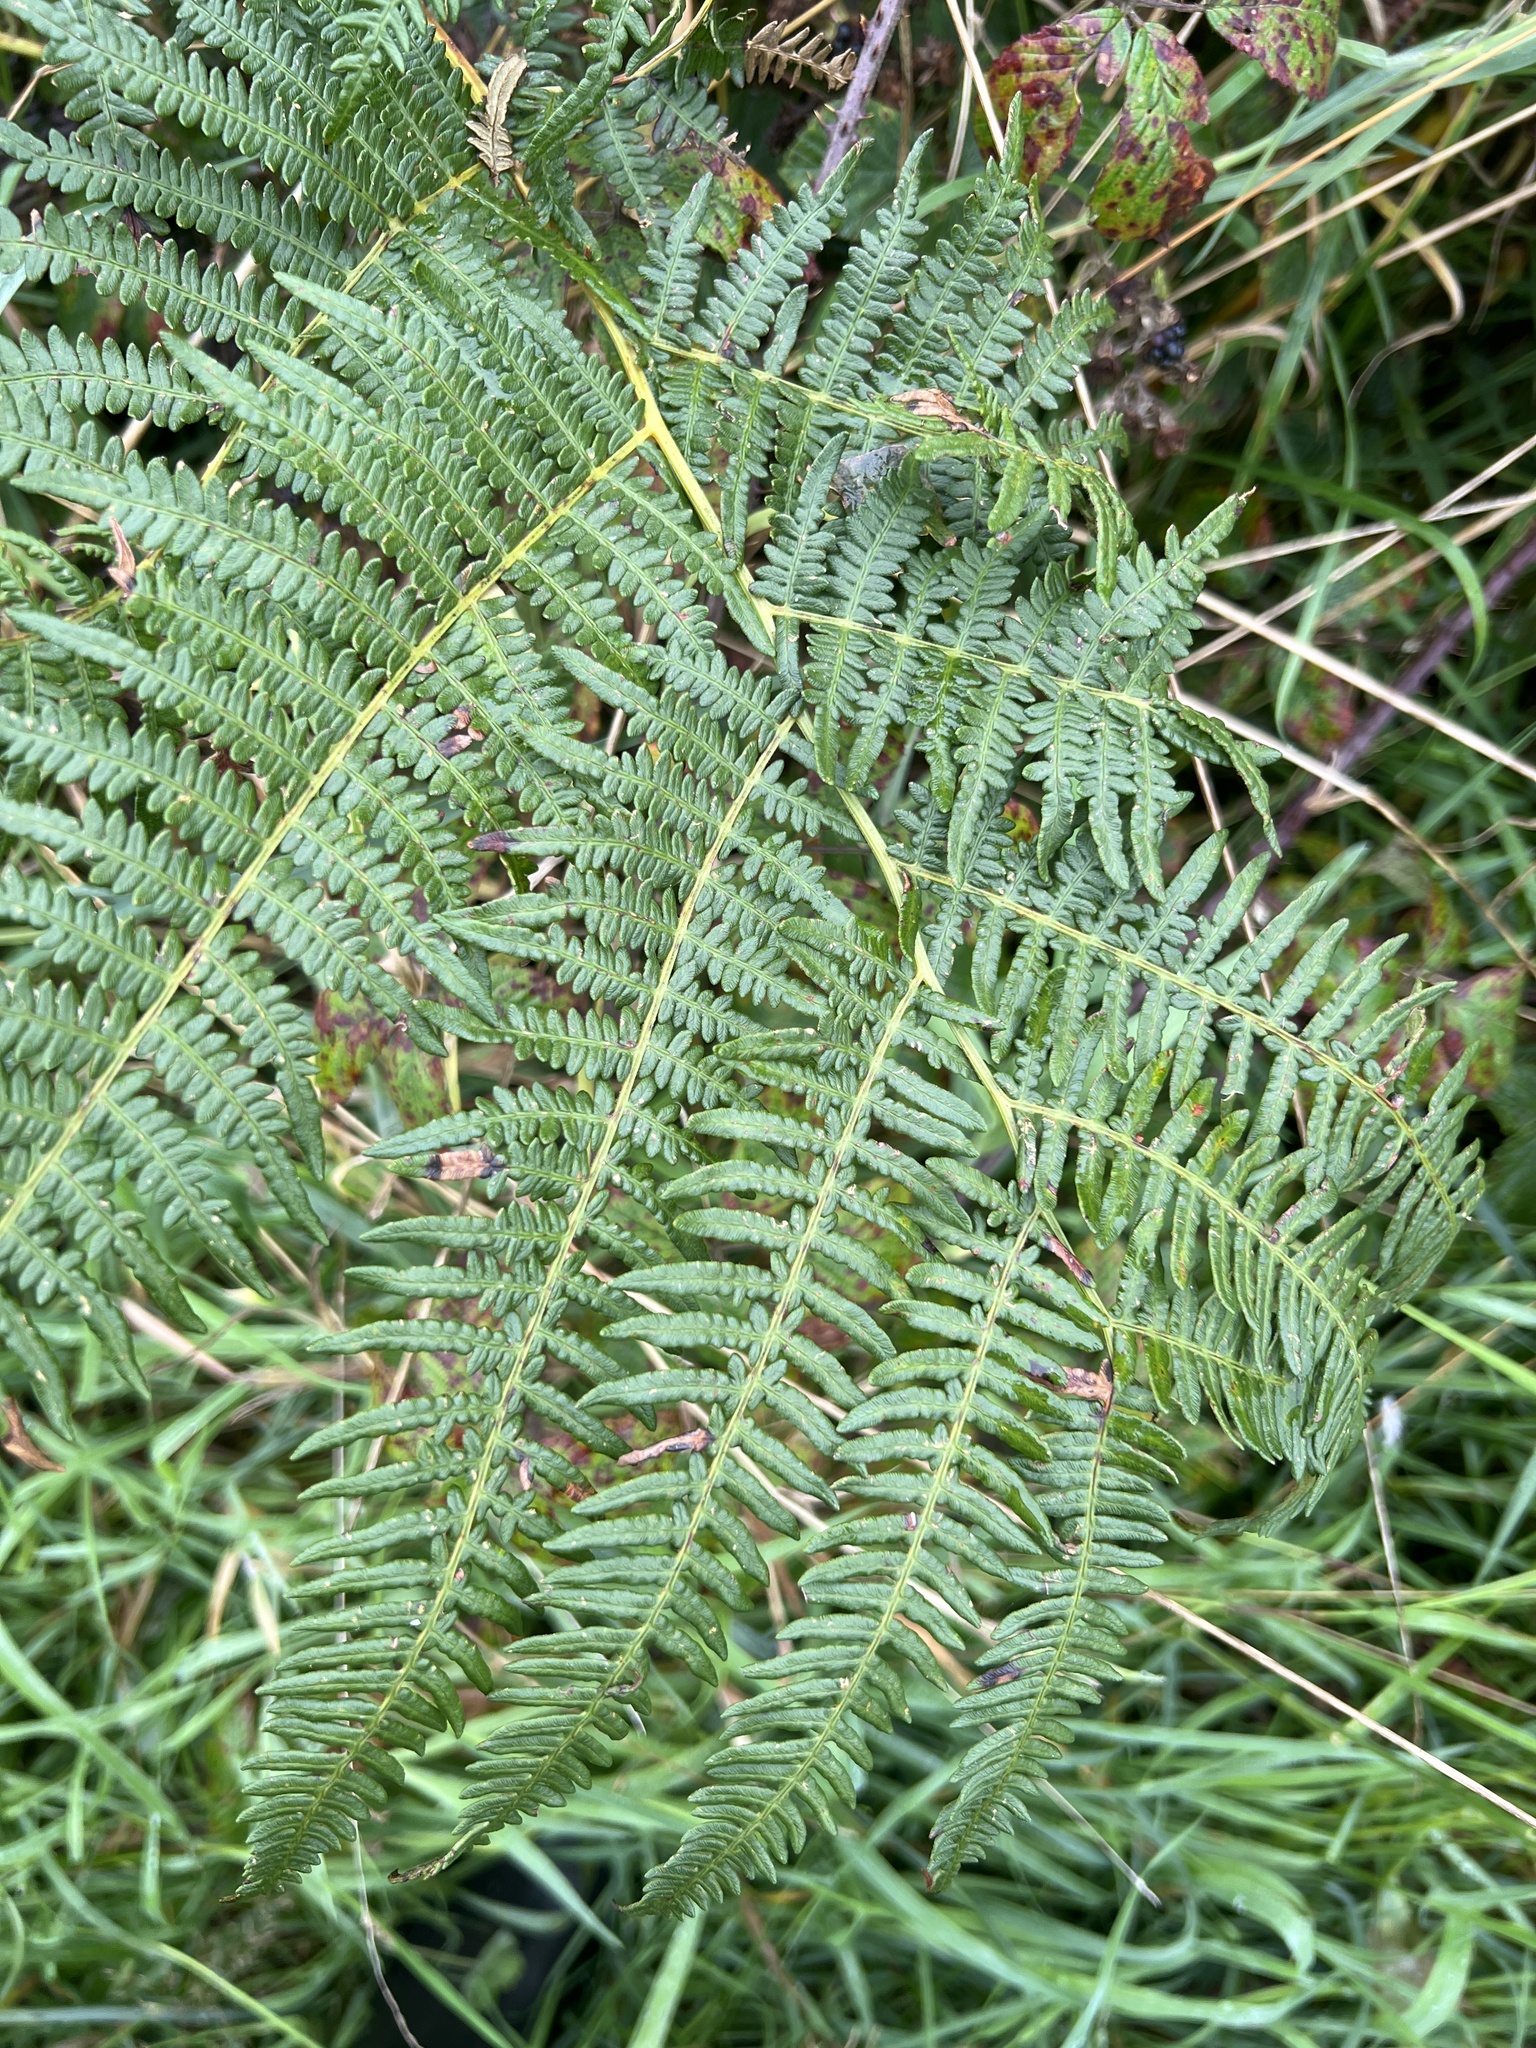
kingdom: Plantae
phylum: Tracheophyta
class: Polypodiopsida
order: Polypodiales
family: Dennstaedtiaceae
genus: Pteridium
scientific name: Pteridium aquilinum
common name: Bracken
